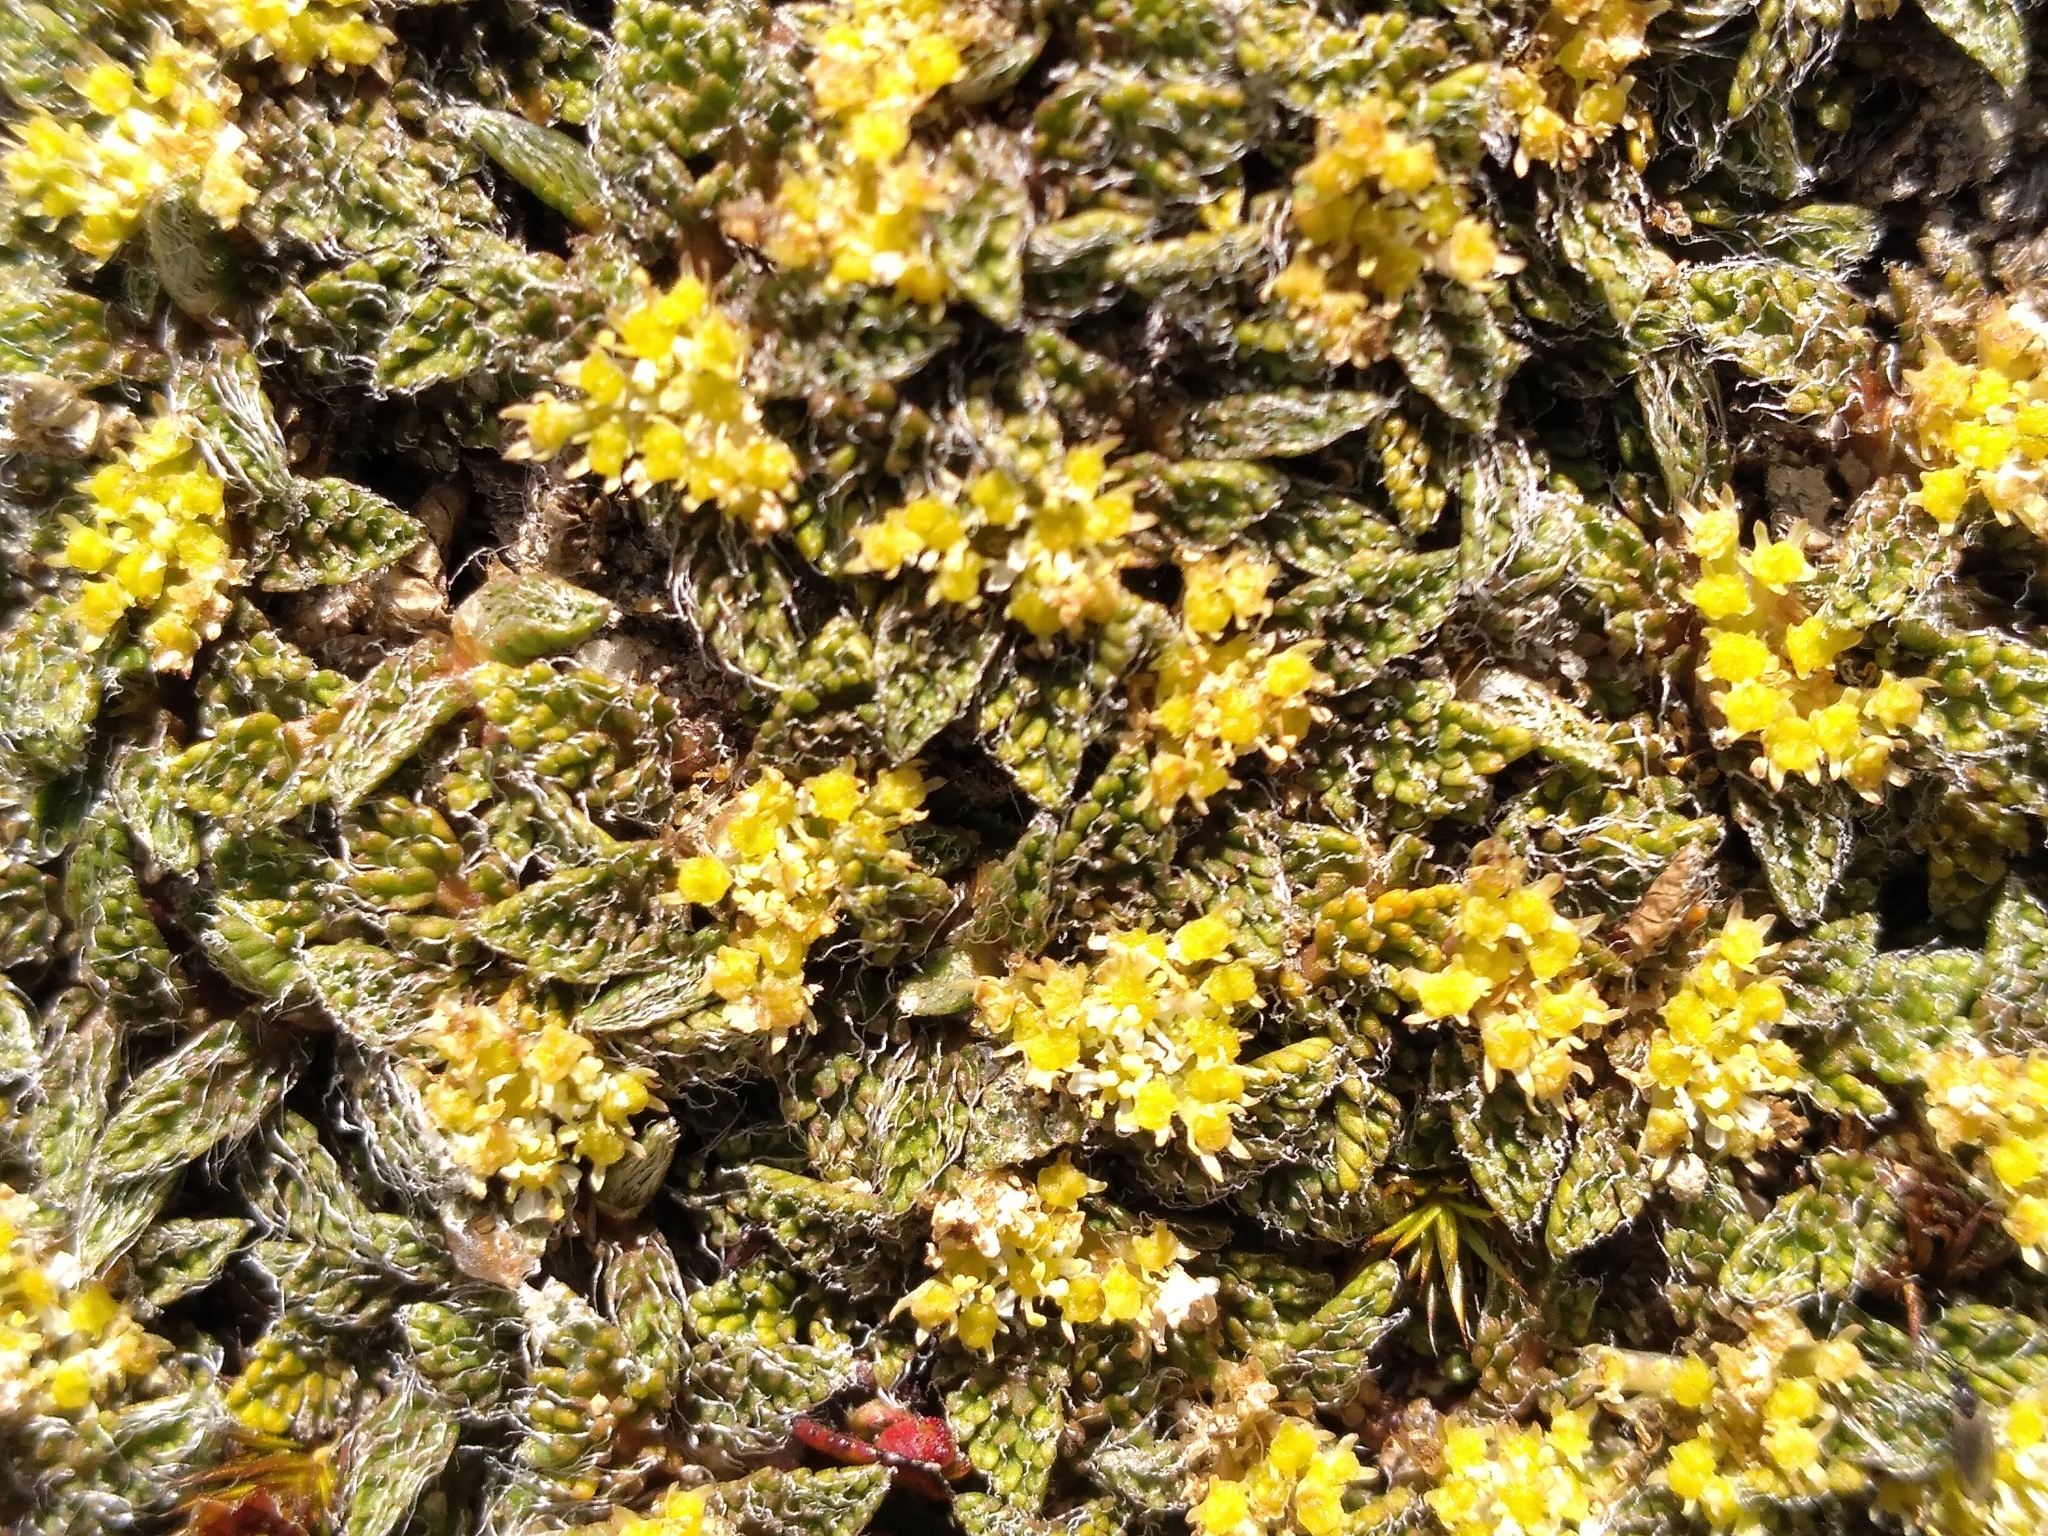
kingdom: Plantae
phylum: Tracheophyta
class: Magnoliopsida
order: Apiales
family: Apiaceae
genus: Anisotome
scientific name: Anisotome imbricata
